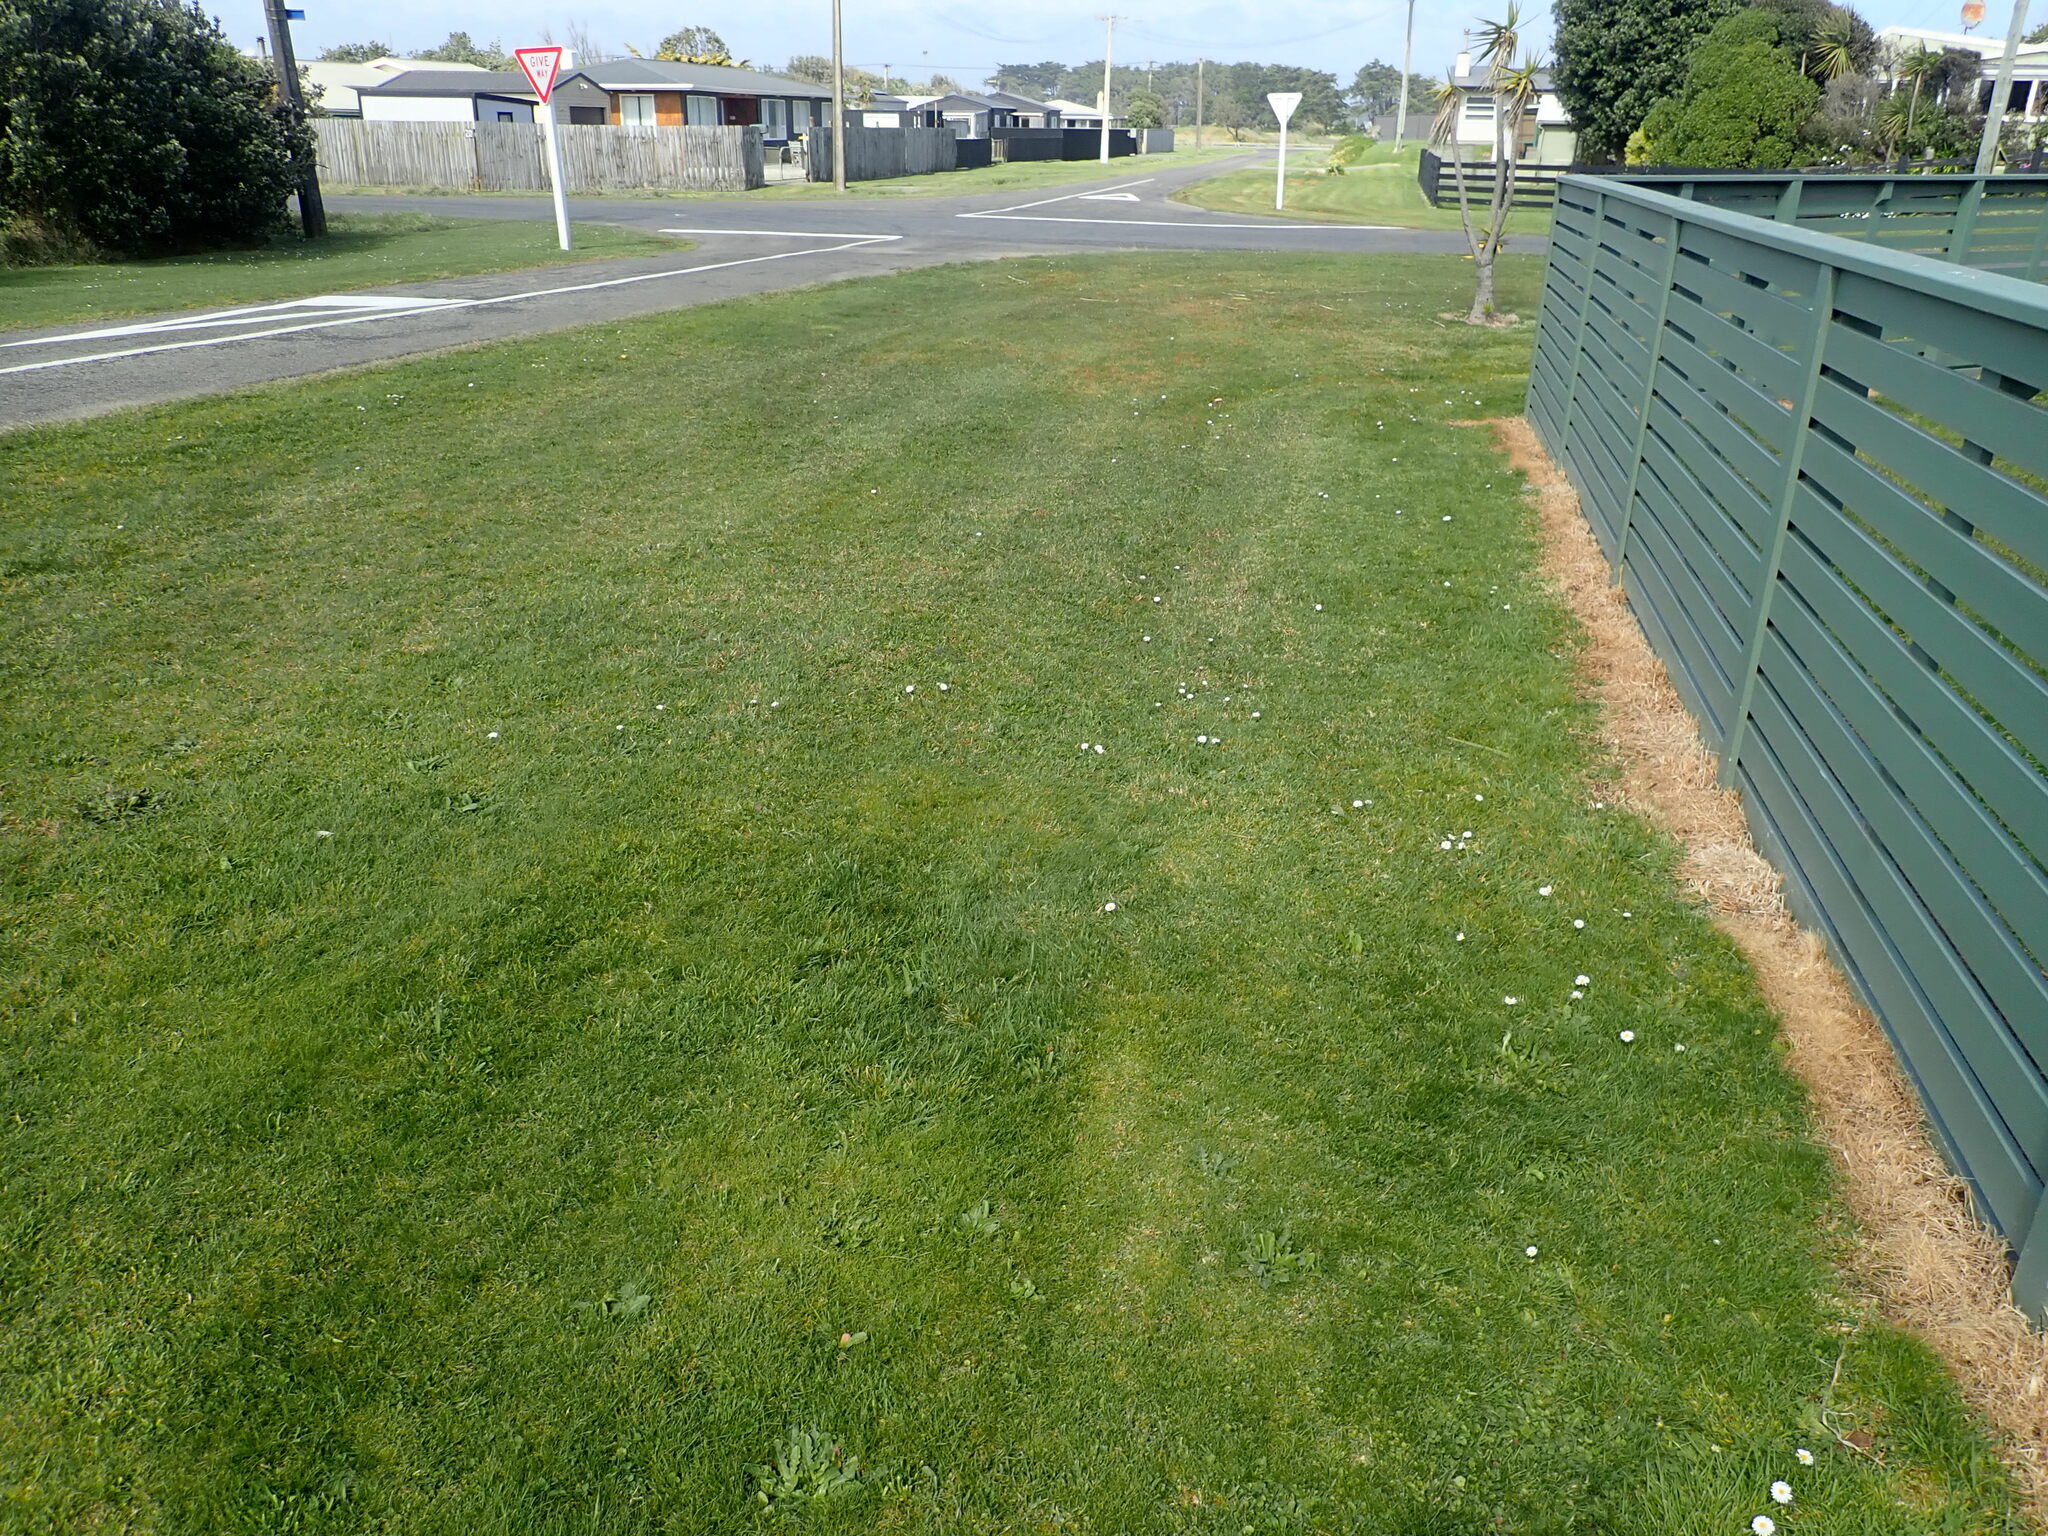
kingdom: Plantae
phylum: Tracheophyta
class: Magnoliopsida
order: Asterales
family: Asteraceae
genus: Leucanthemum
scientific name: Leucanthemum vulgare
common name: Oxeye daisy
